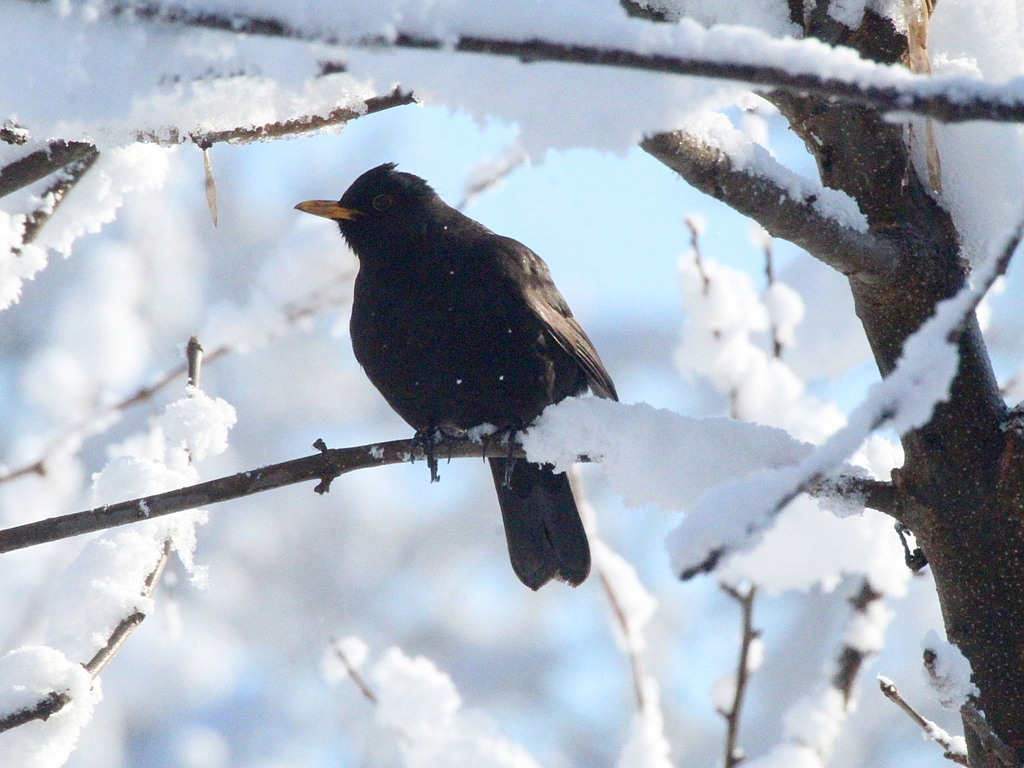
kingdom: Animalia
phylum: Chordata
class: Aves
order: Passeriformes
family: Turdidae
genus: Turdus
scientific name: Turdus merula
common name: Common blackbird
